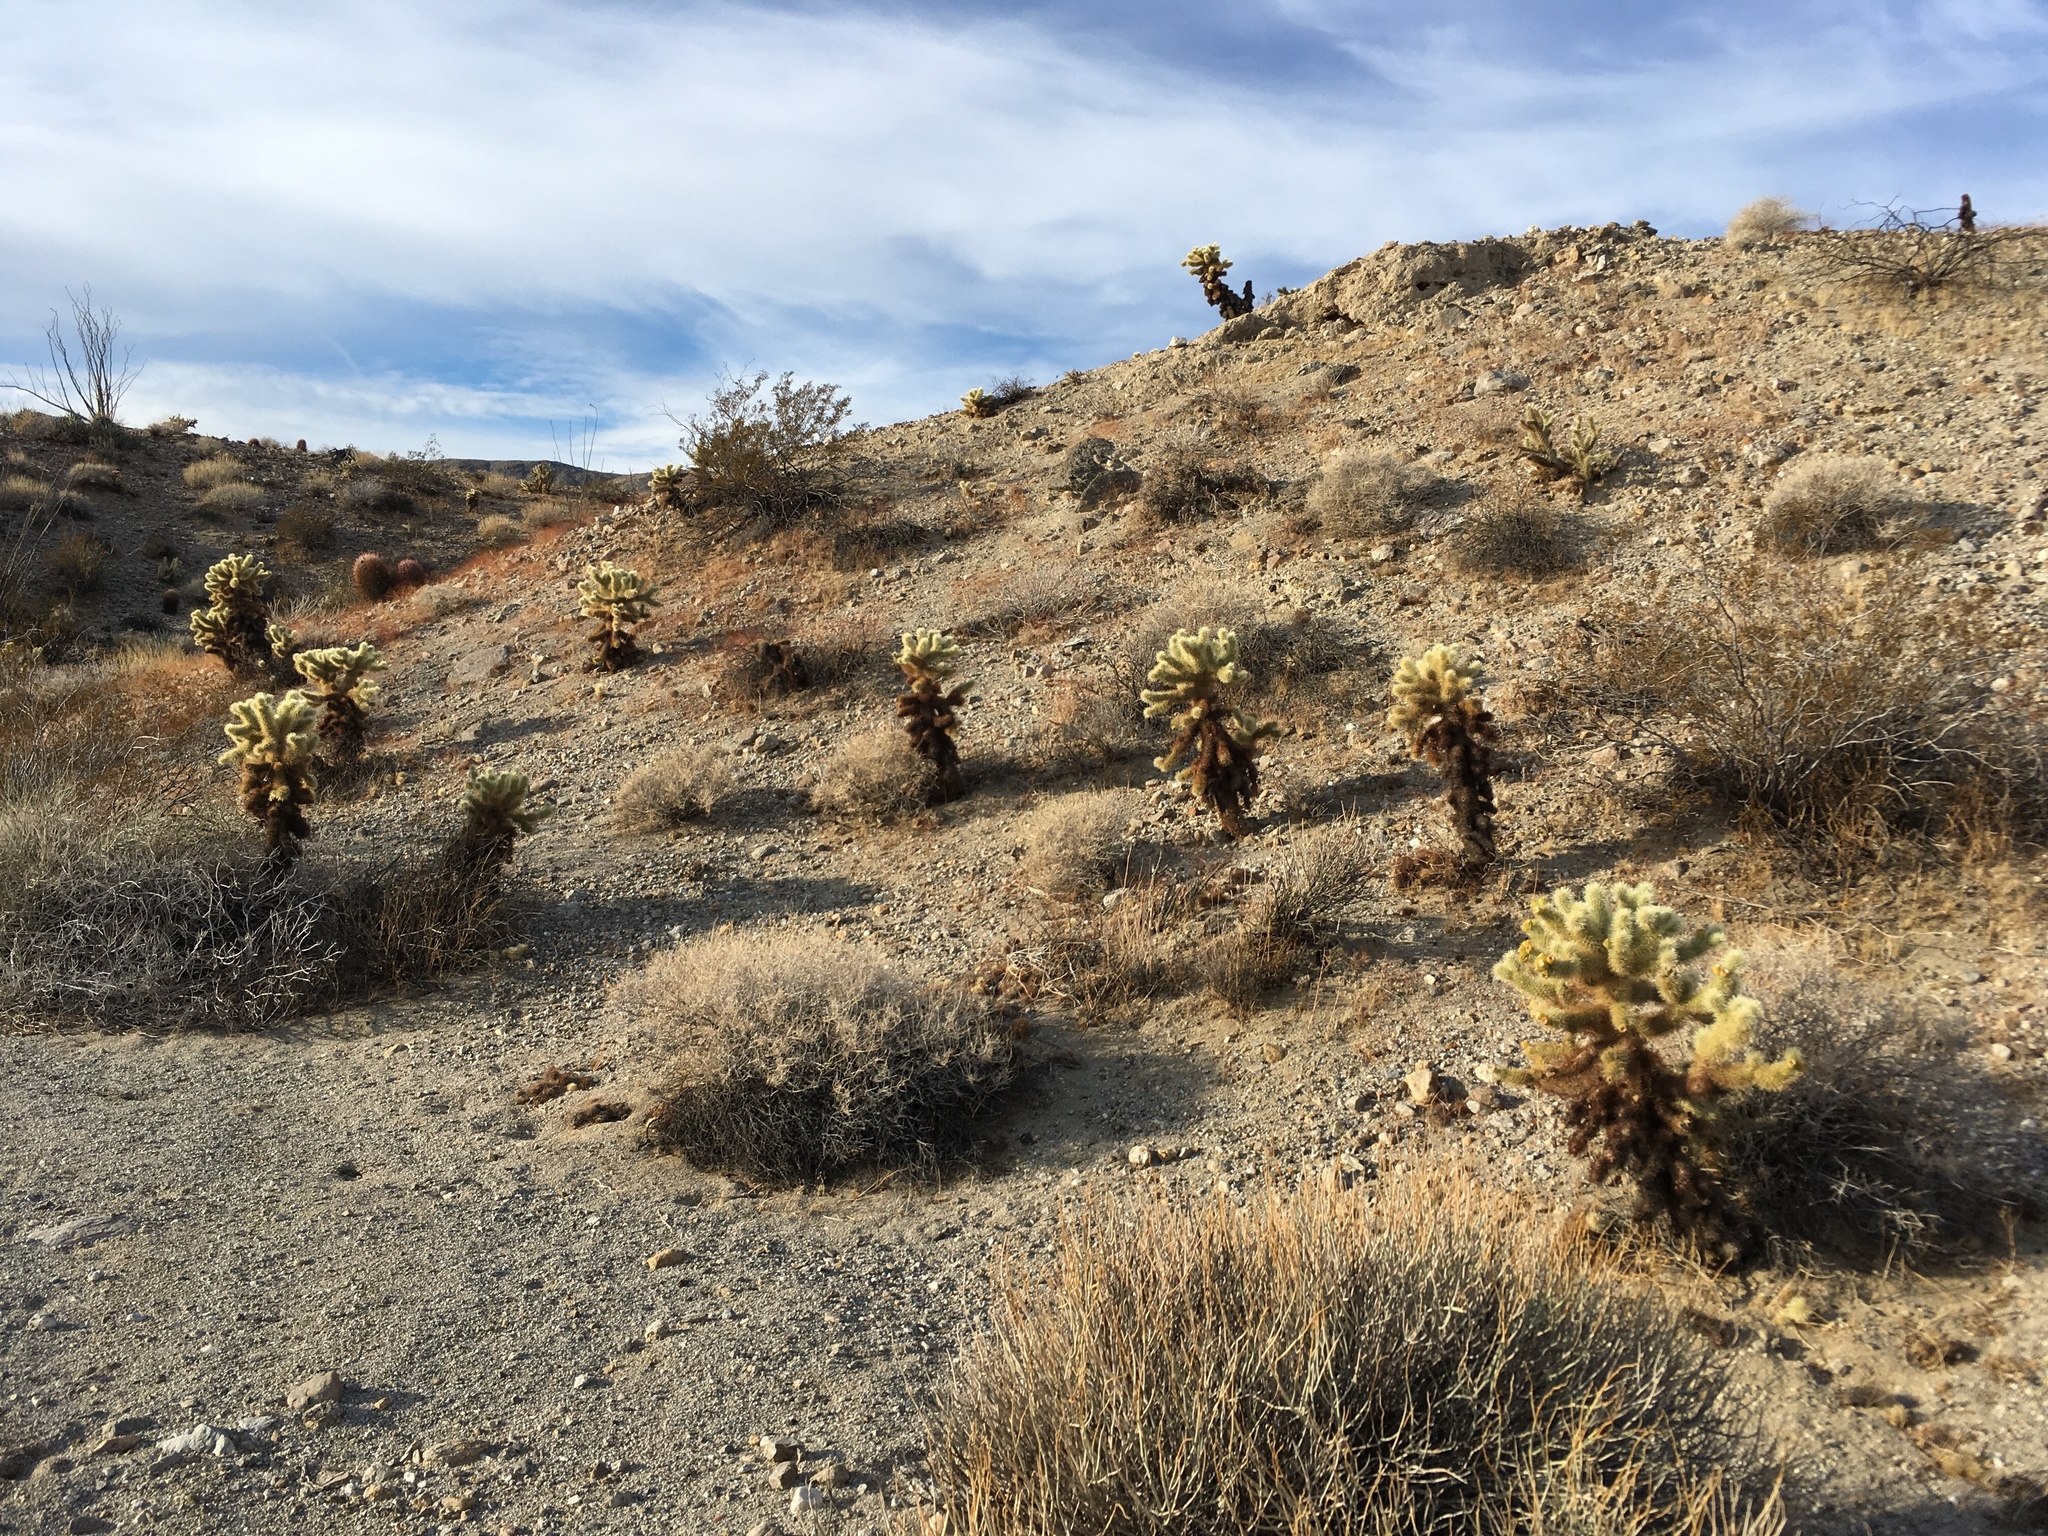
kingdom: Plantae
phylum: Tracheophyta
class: Magnoliopsida
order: Caryophyllales
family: Cactaceae
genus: Cylindropuntia
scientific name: Cylindropuntia fosbergii
